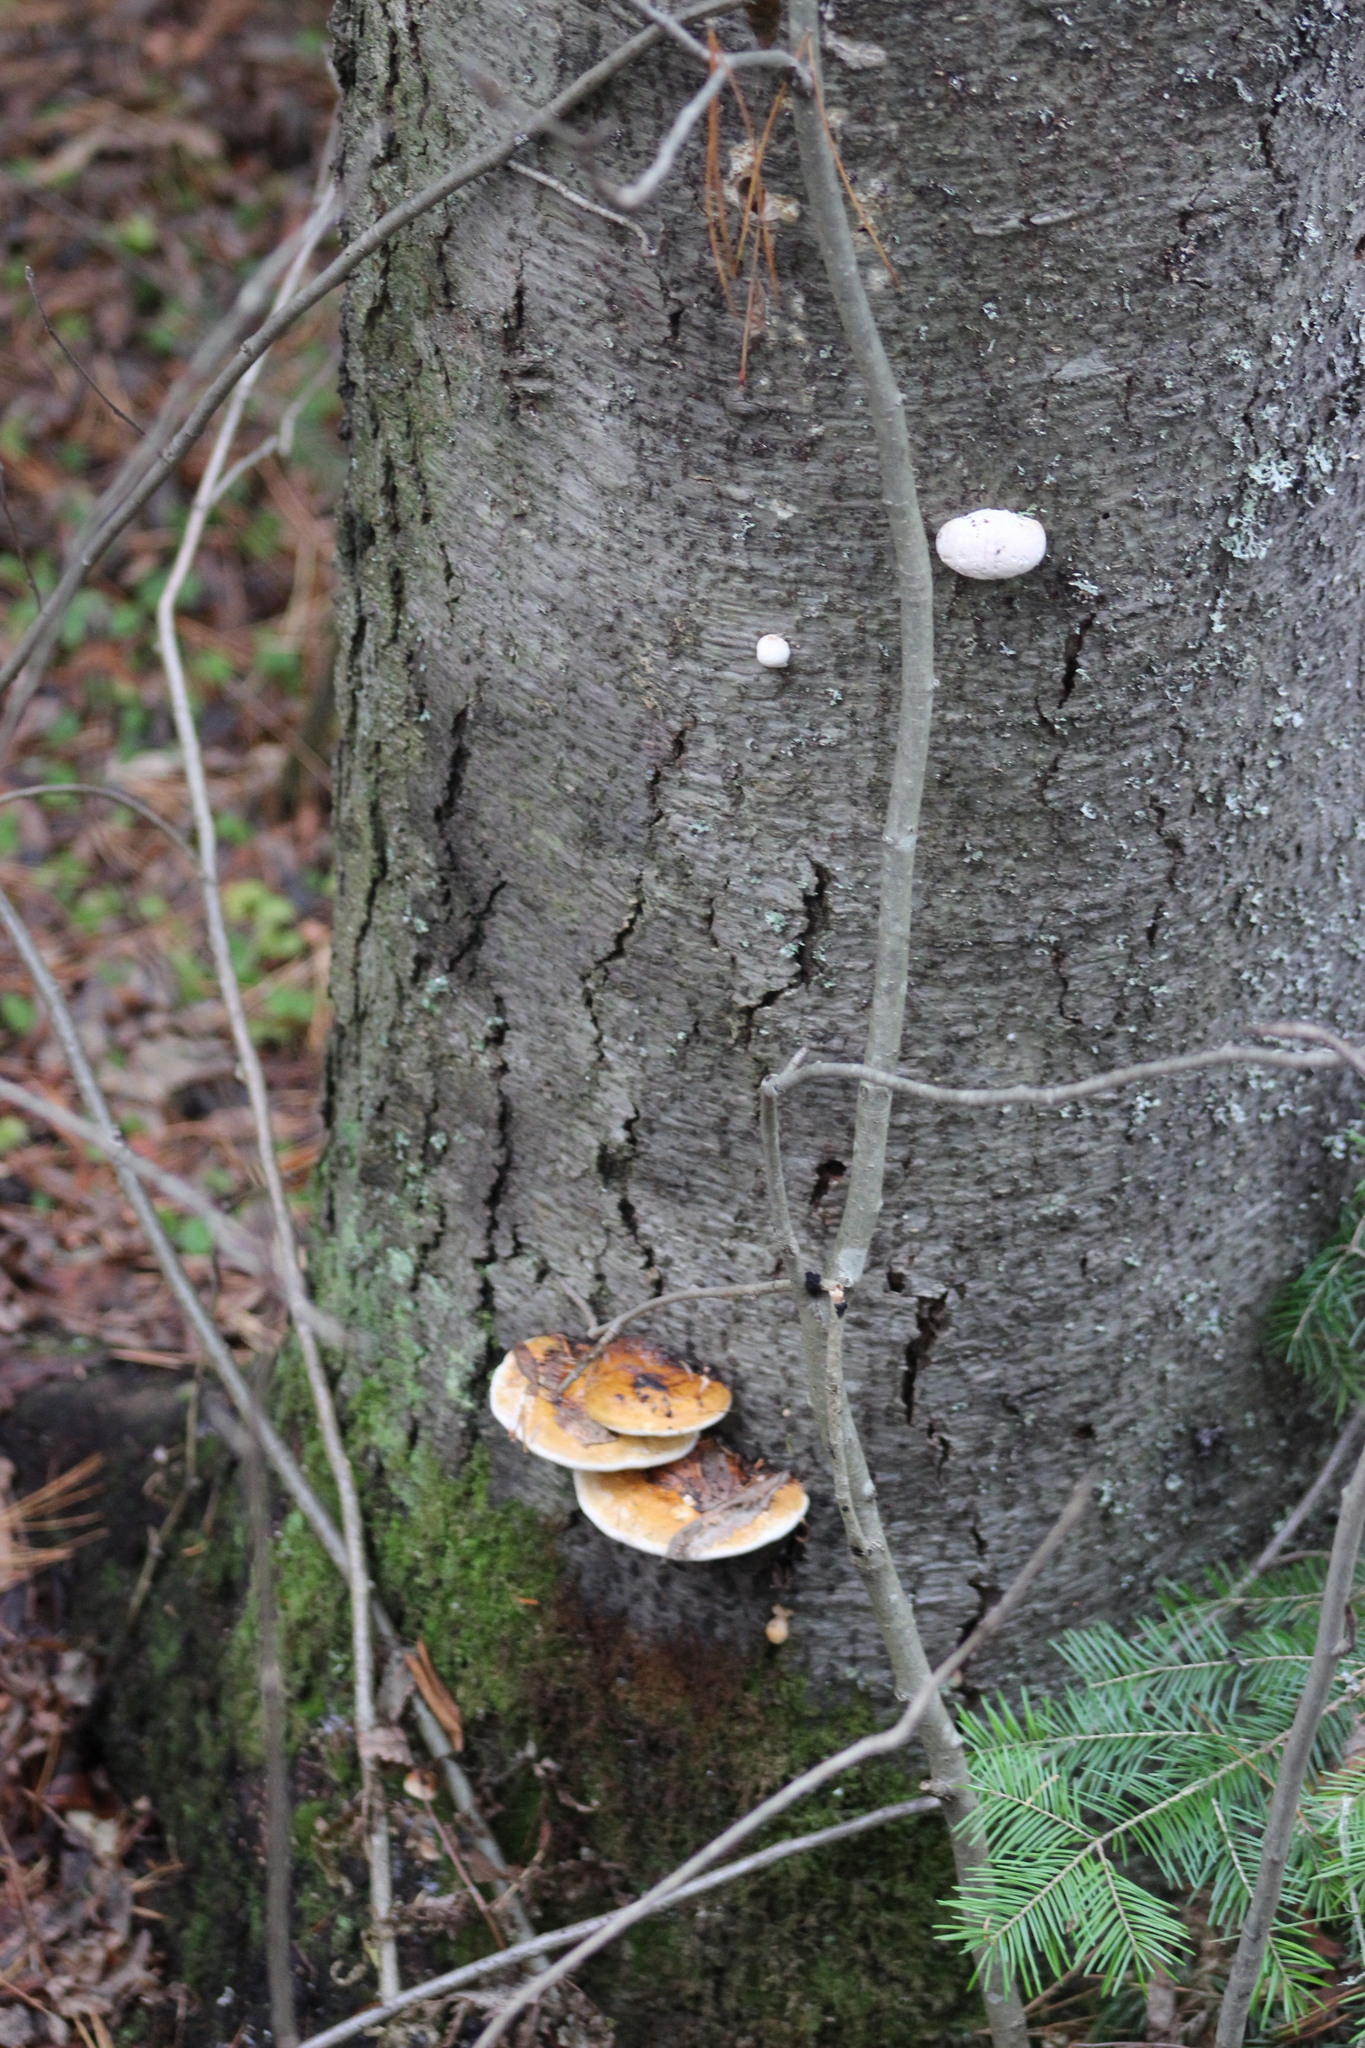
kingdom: Fungi
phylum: Basidiomycota
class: Agaricomycetes
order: Polyporales
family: Fomitopsidaceae
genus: Fomitopsis
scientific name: Fomitopsis pinicola
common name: Red-belted bracket
